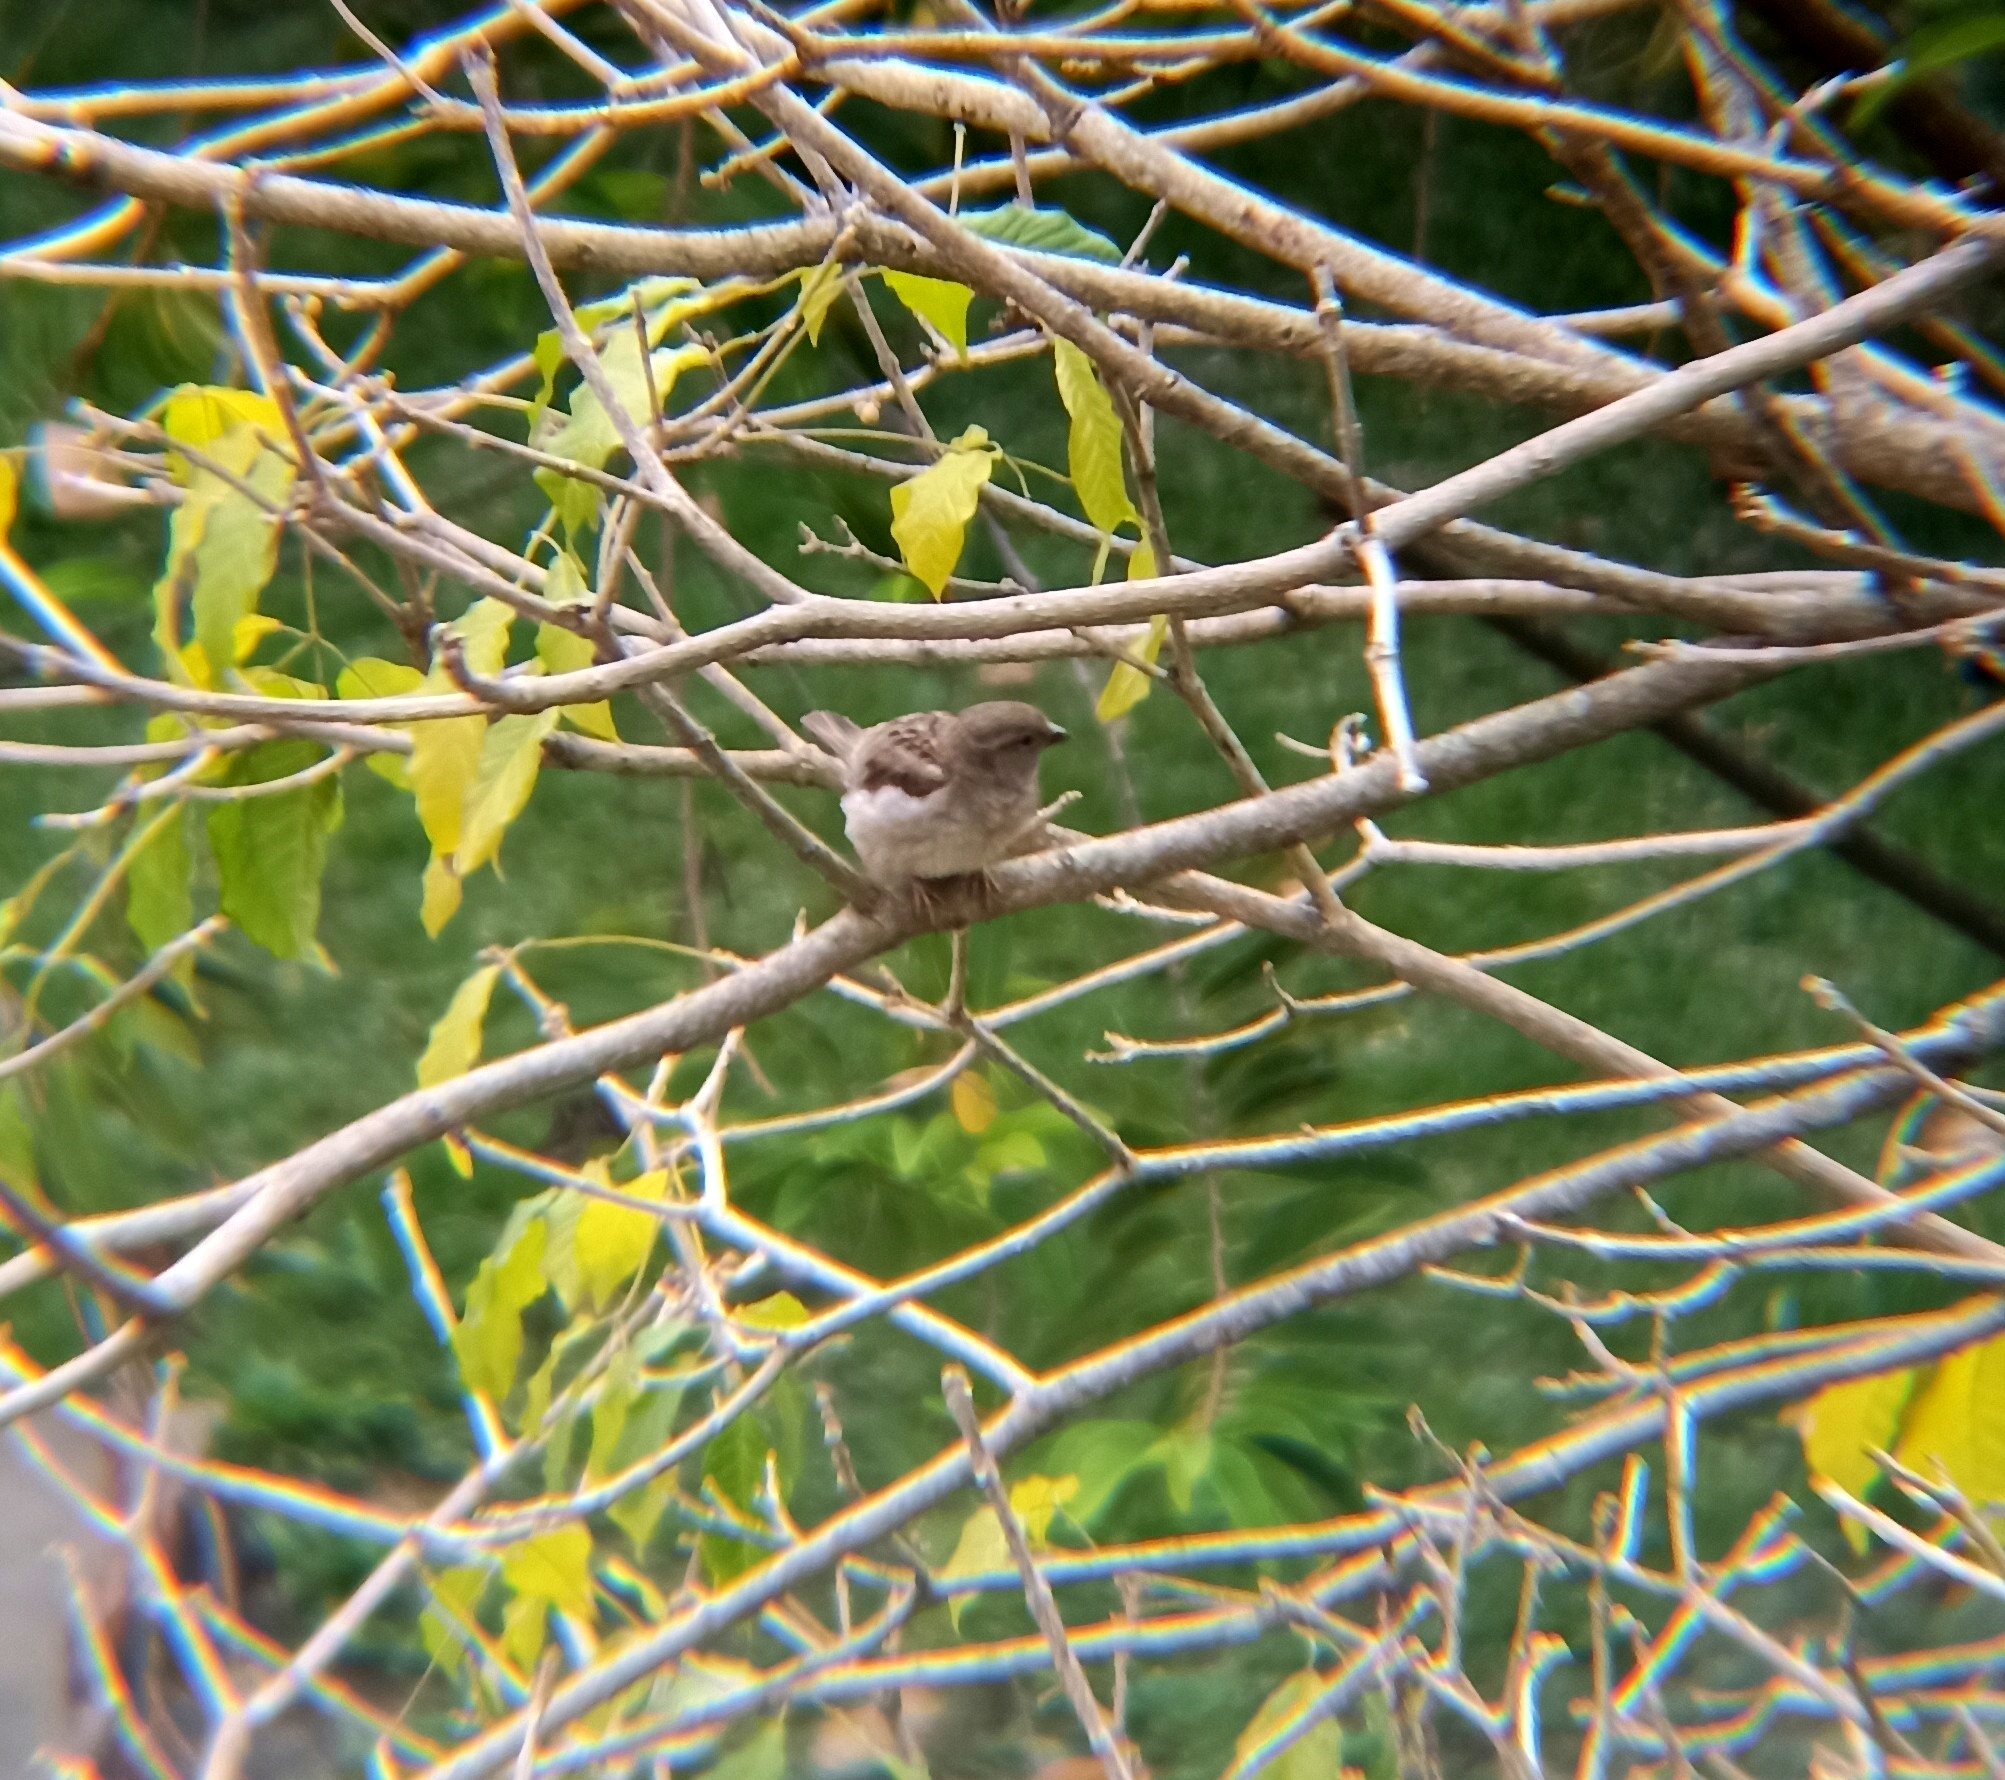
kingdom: Animalia
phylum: Chordata
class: Aves
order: Passeriformes
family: Passeridae
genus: Passer
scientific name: Passer domesticus
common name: House sparrow
